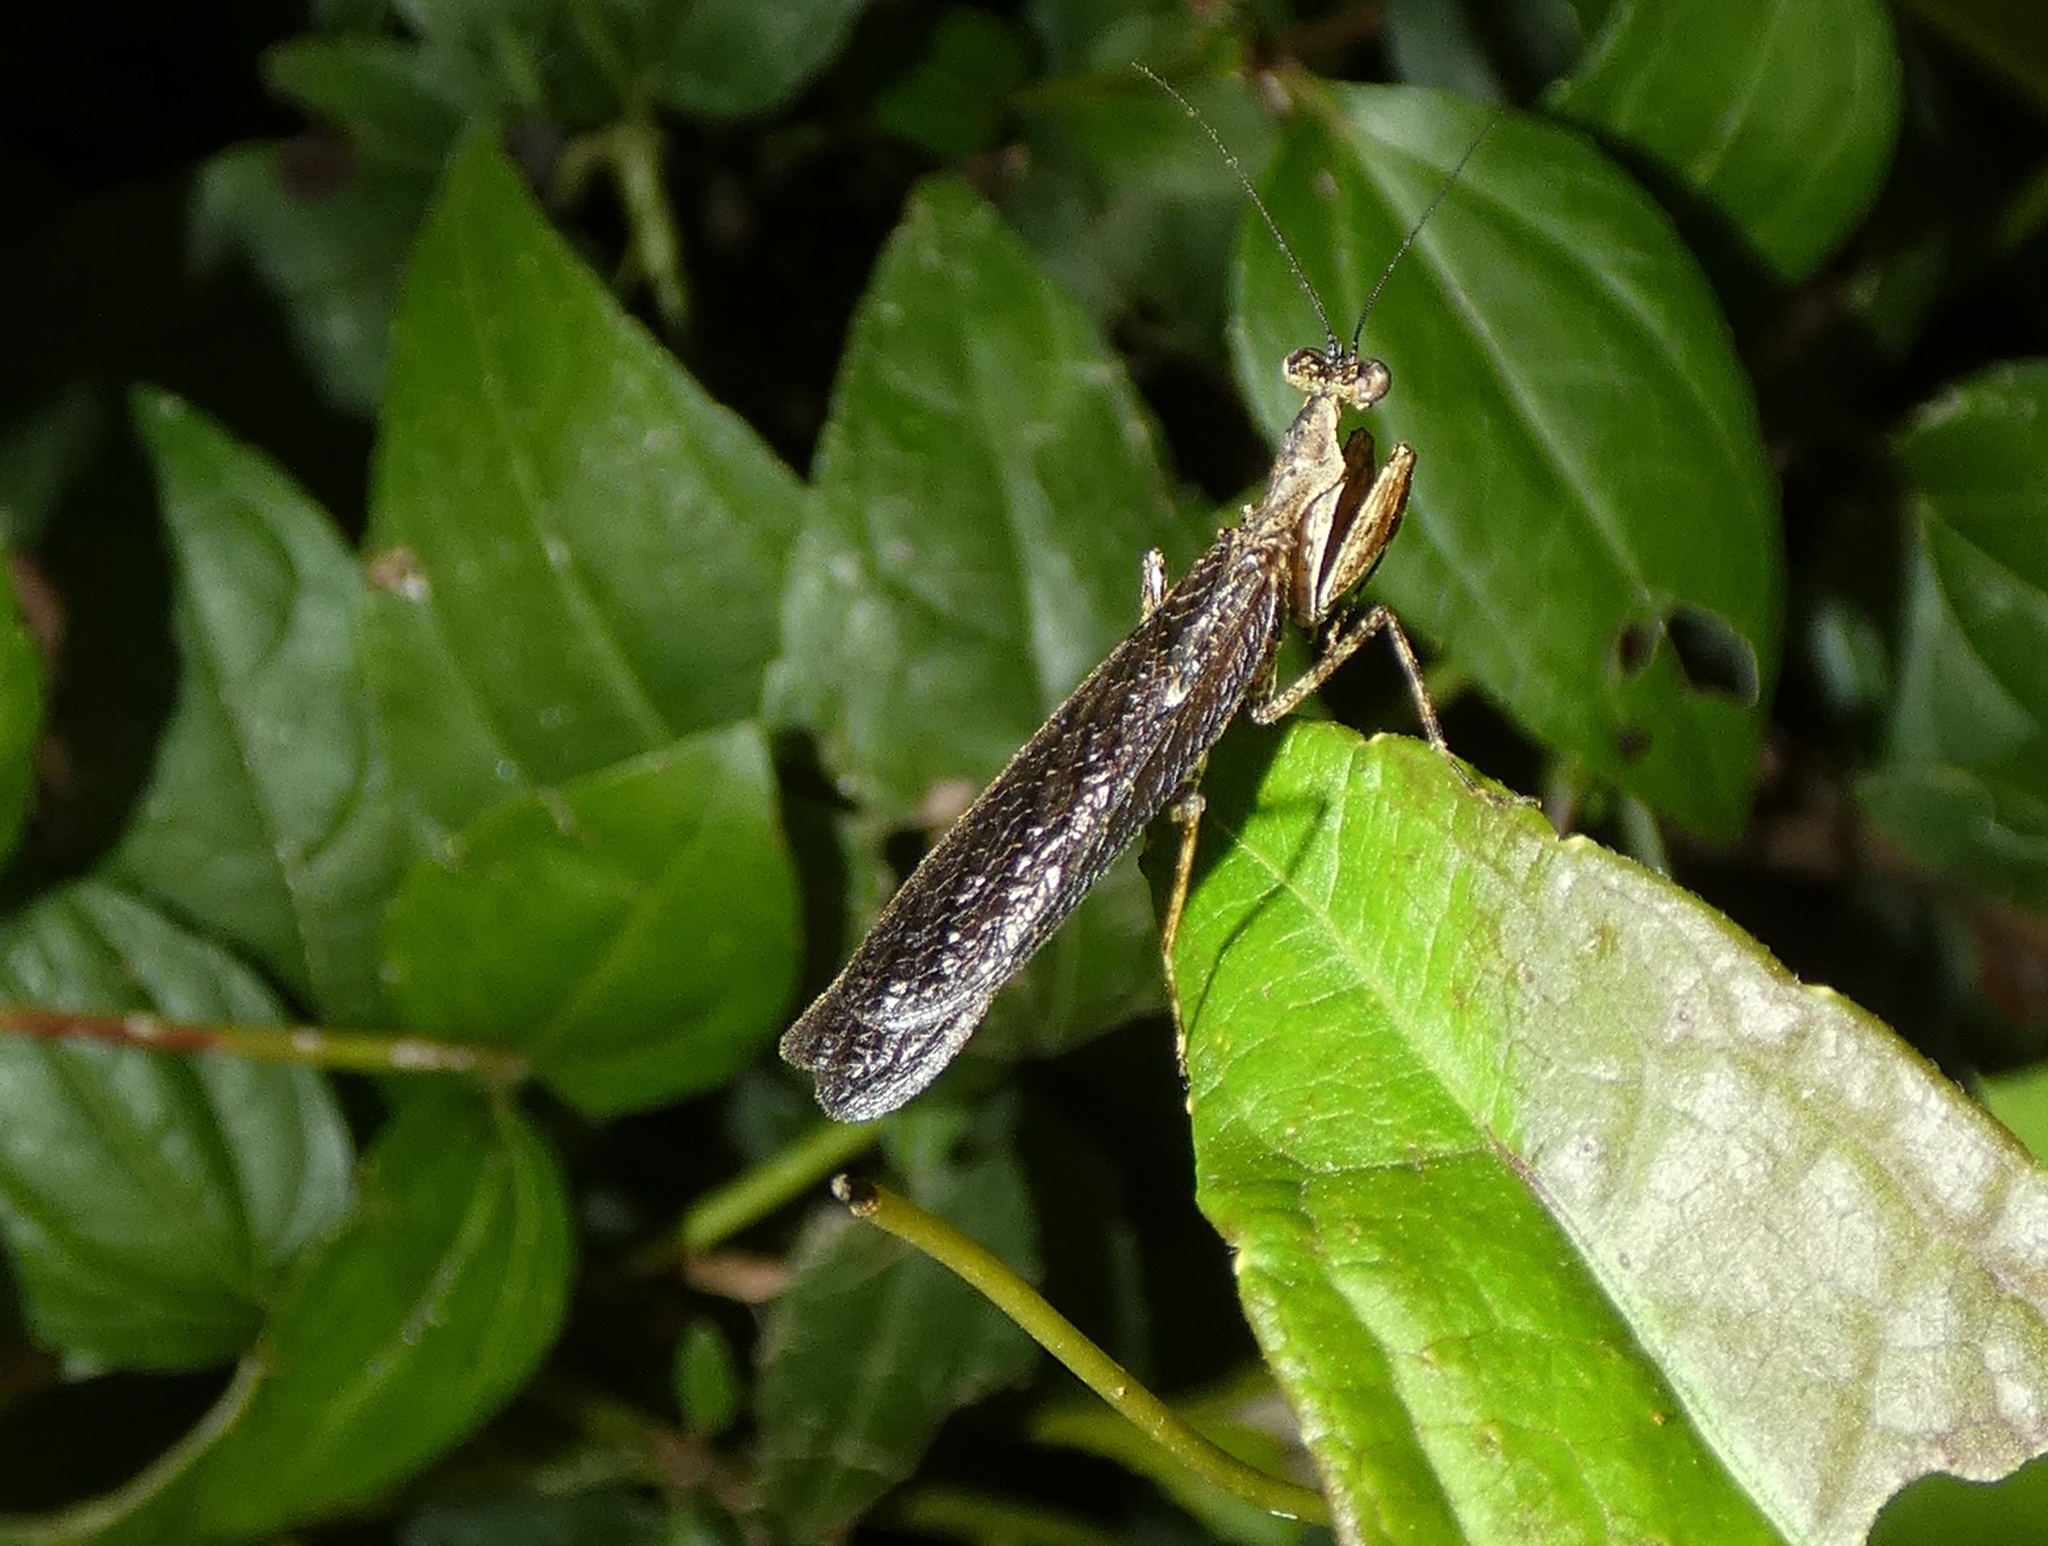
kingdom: Animalia
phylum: Arthropoda
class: Insecta
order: Mantodea
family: Thespidae
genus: Pseudomiopteryx
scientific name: Pseudomiopteryx infuscata
